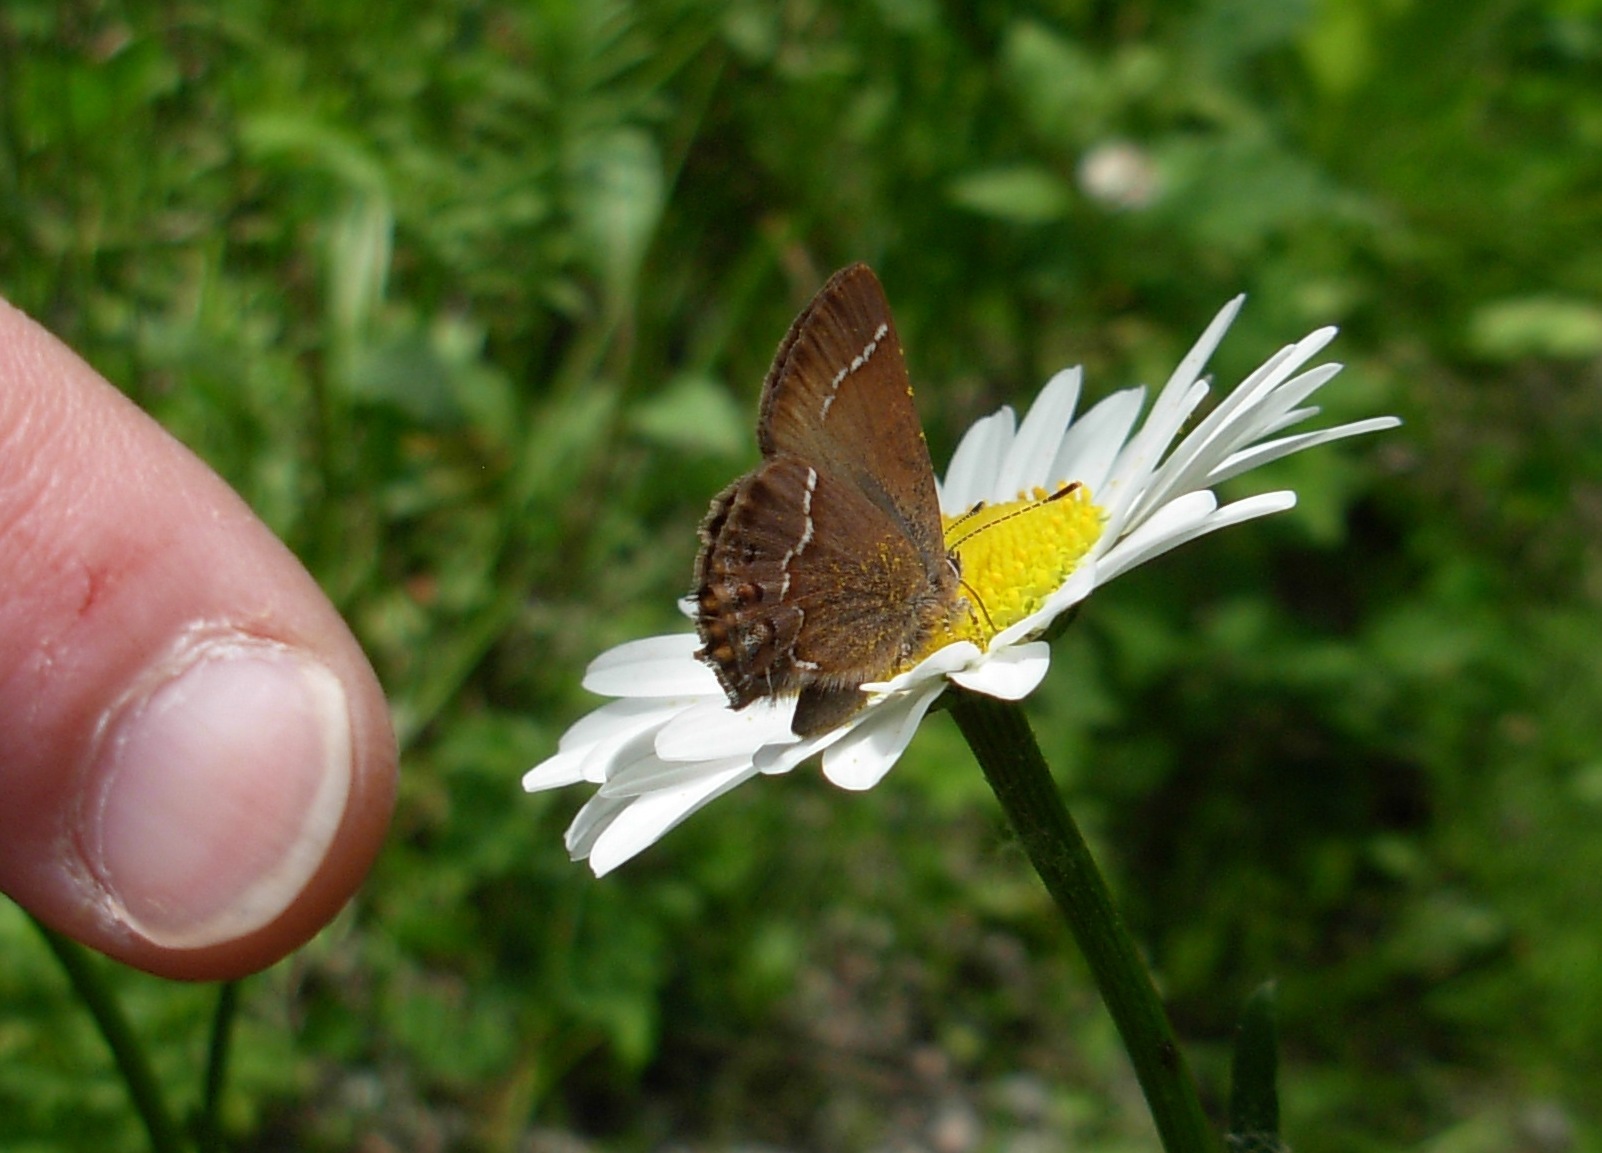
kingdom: Animalia
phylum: Arthropoda
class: Insecta
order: Lepidoptera
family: Lycaenidae
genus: Mitoura
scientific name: Mitoura gryneus
